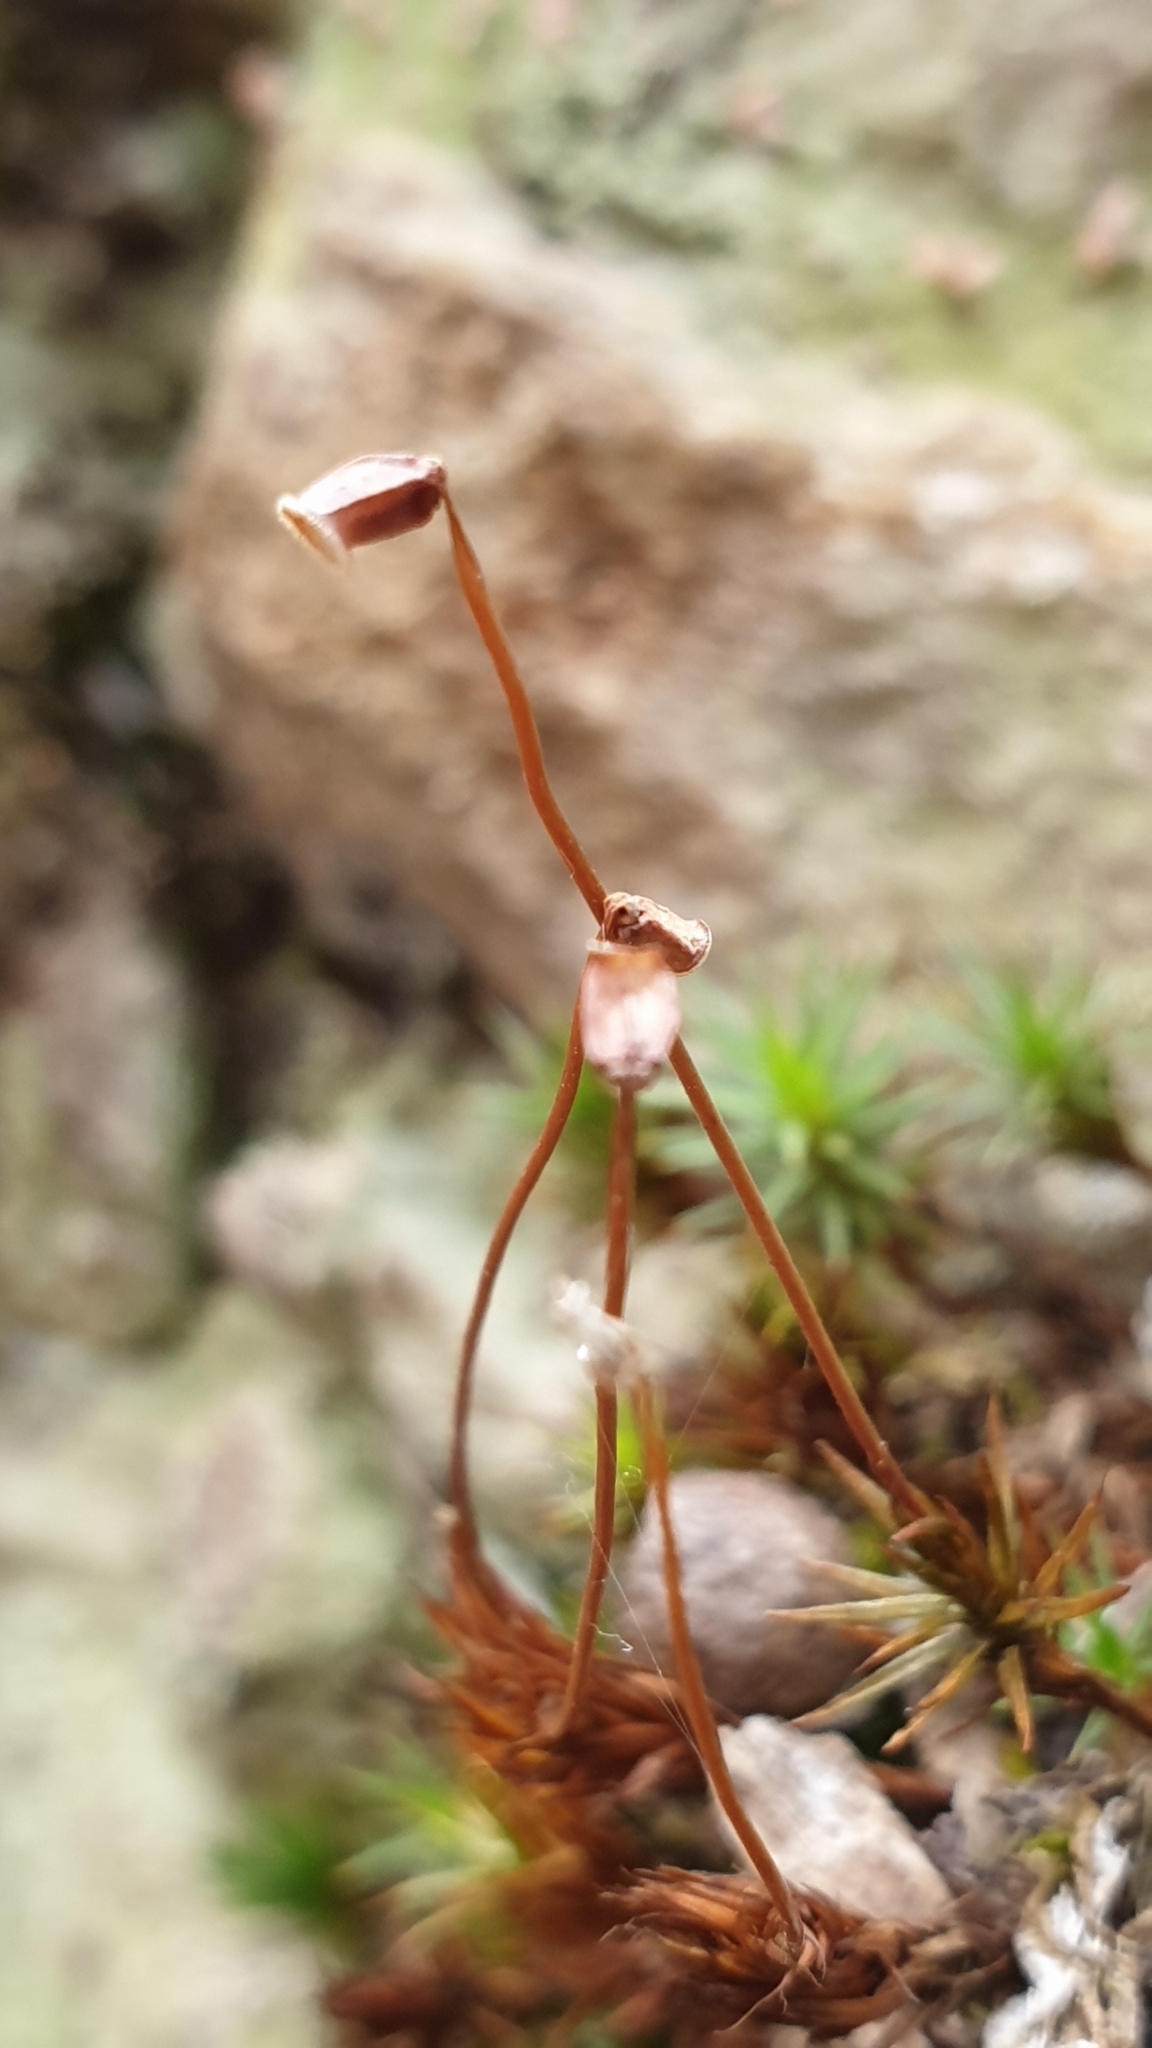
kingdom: Plantae
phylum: Bryophyta
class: Polytrichopsida
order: Polytrichales
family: Polytrichaceae
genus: Polytrichum
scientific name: Polytrichum juniperinum
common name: Juniper haircap moss
